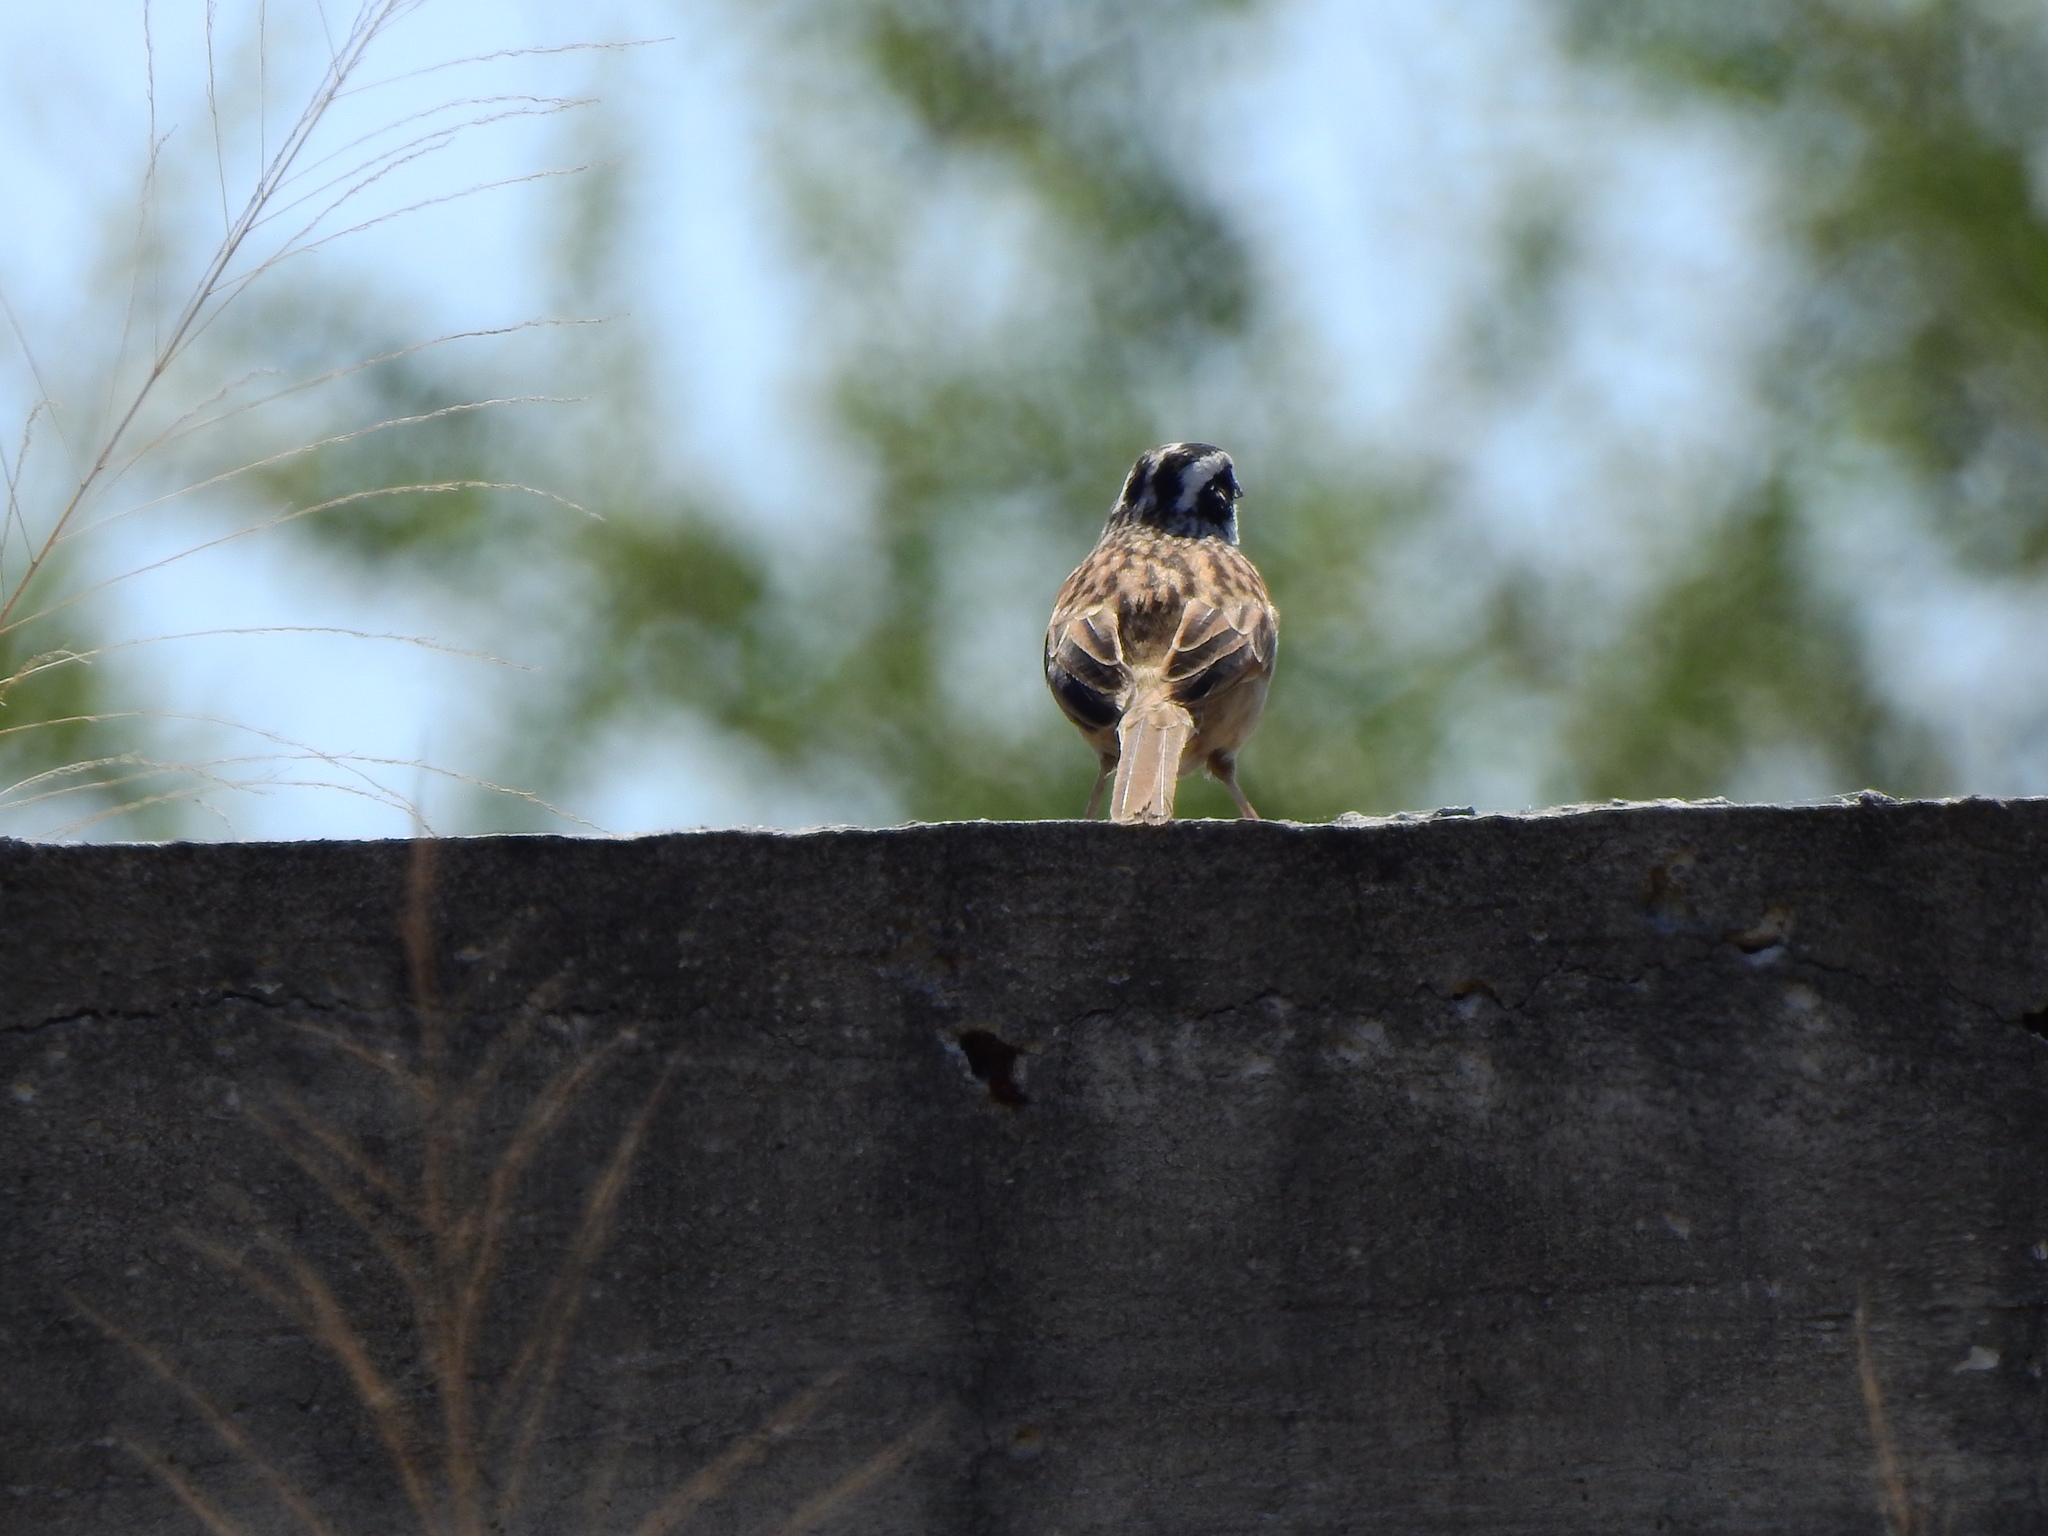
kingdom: Animalia
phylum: Chordata
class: Aves
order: Passeriformes
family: Passerellidae
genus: Peucaea
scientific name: Peucaea ruficauda
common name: Stripe-headed sparrow
